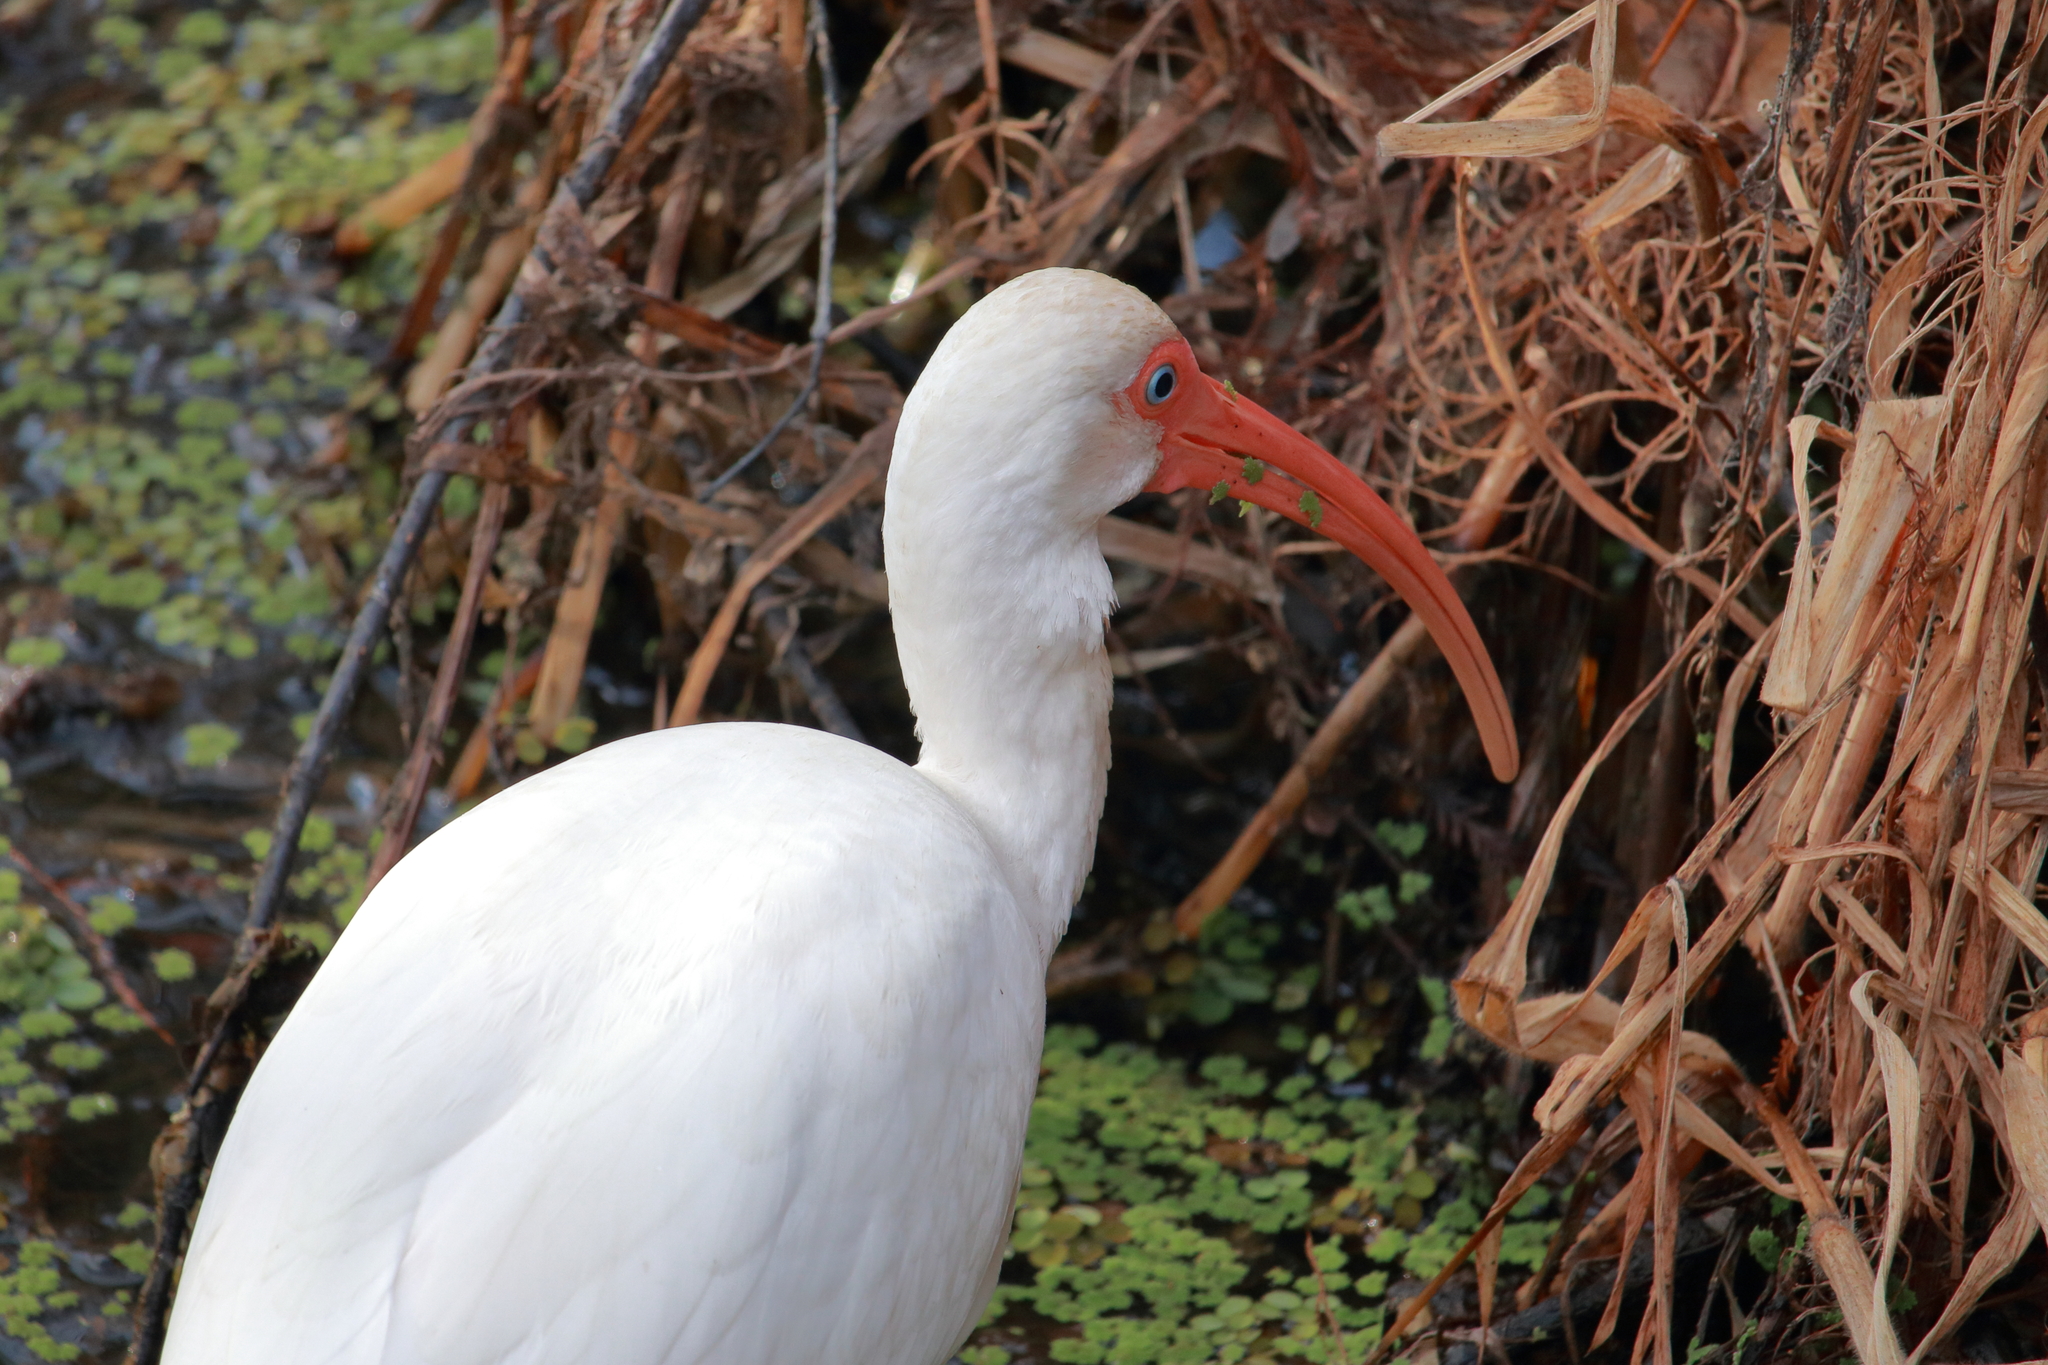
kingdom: Animalia
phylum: Chordata
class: Aves
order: Pelecaniformes
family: Threskiornithidae
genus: Eudocimus
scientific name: Eudocimus albus
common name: White ibis
